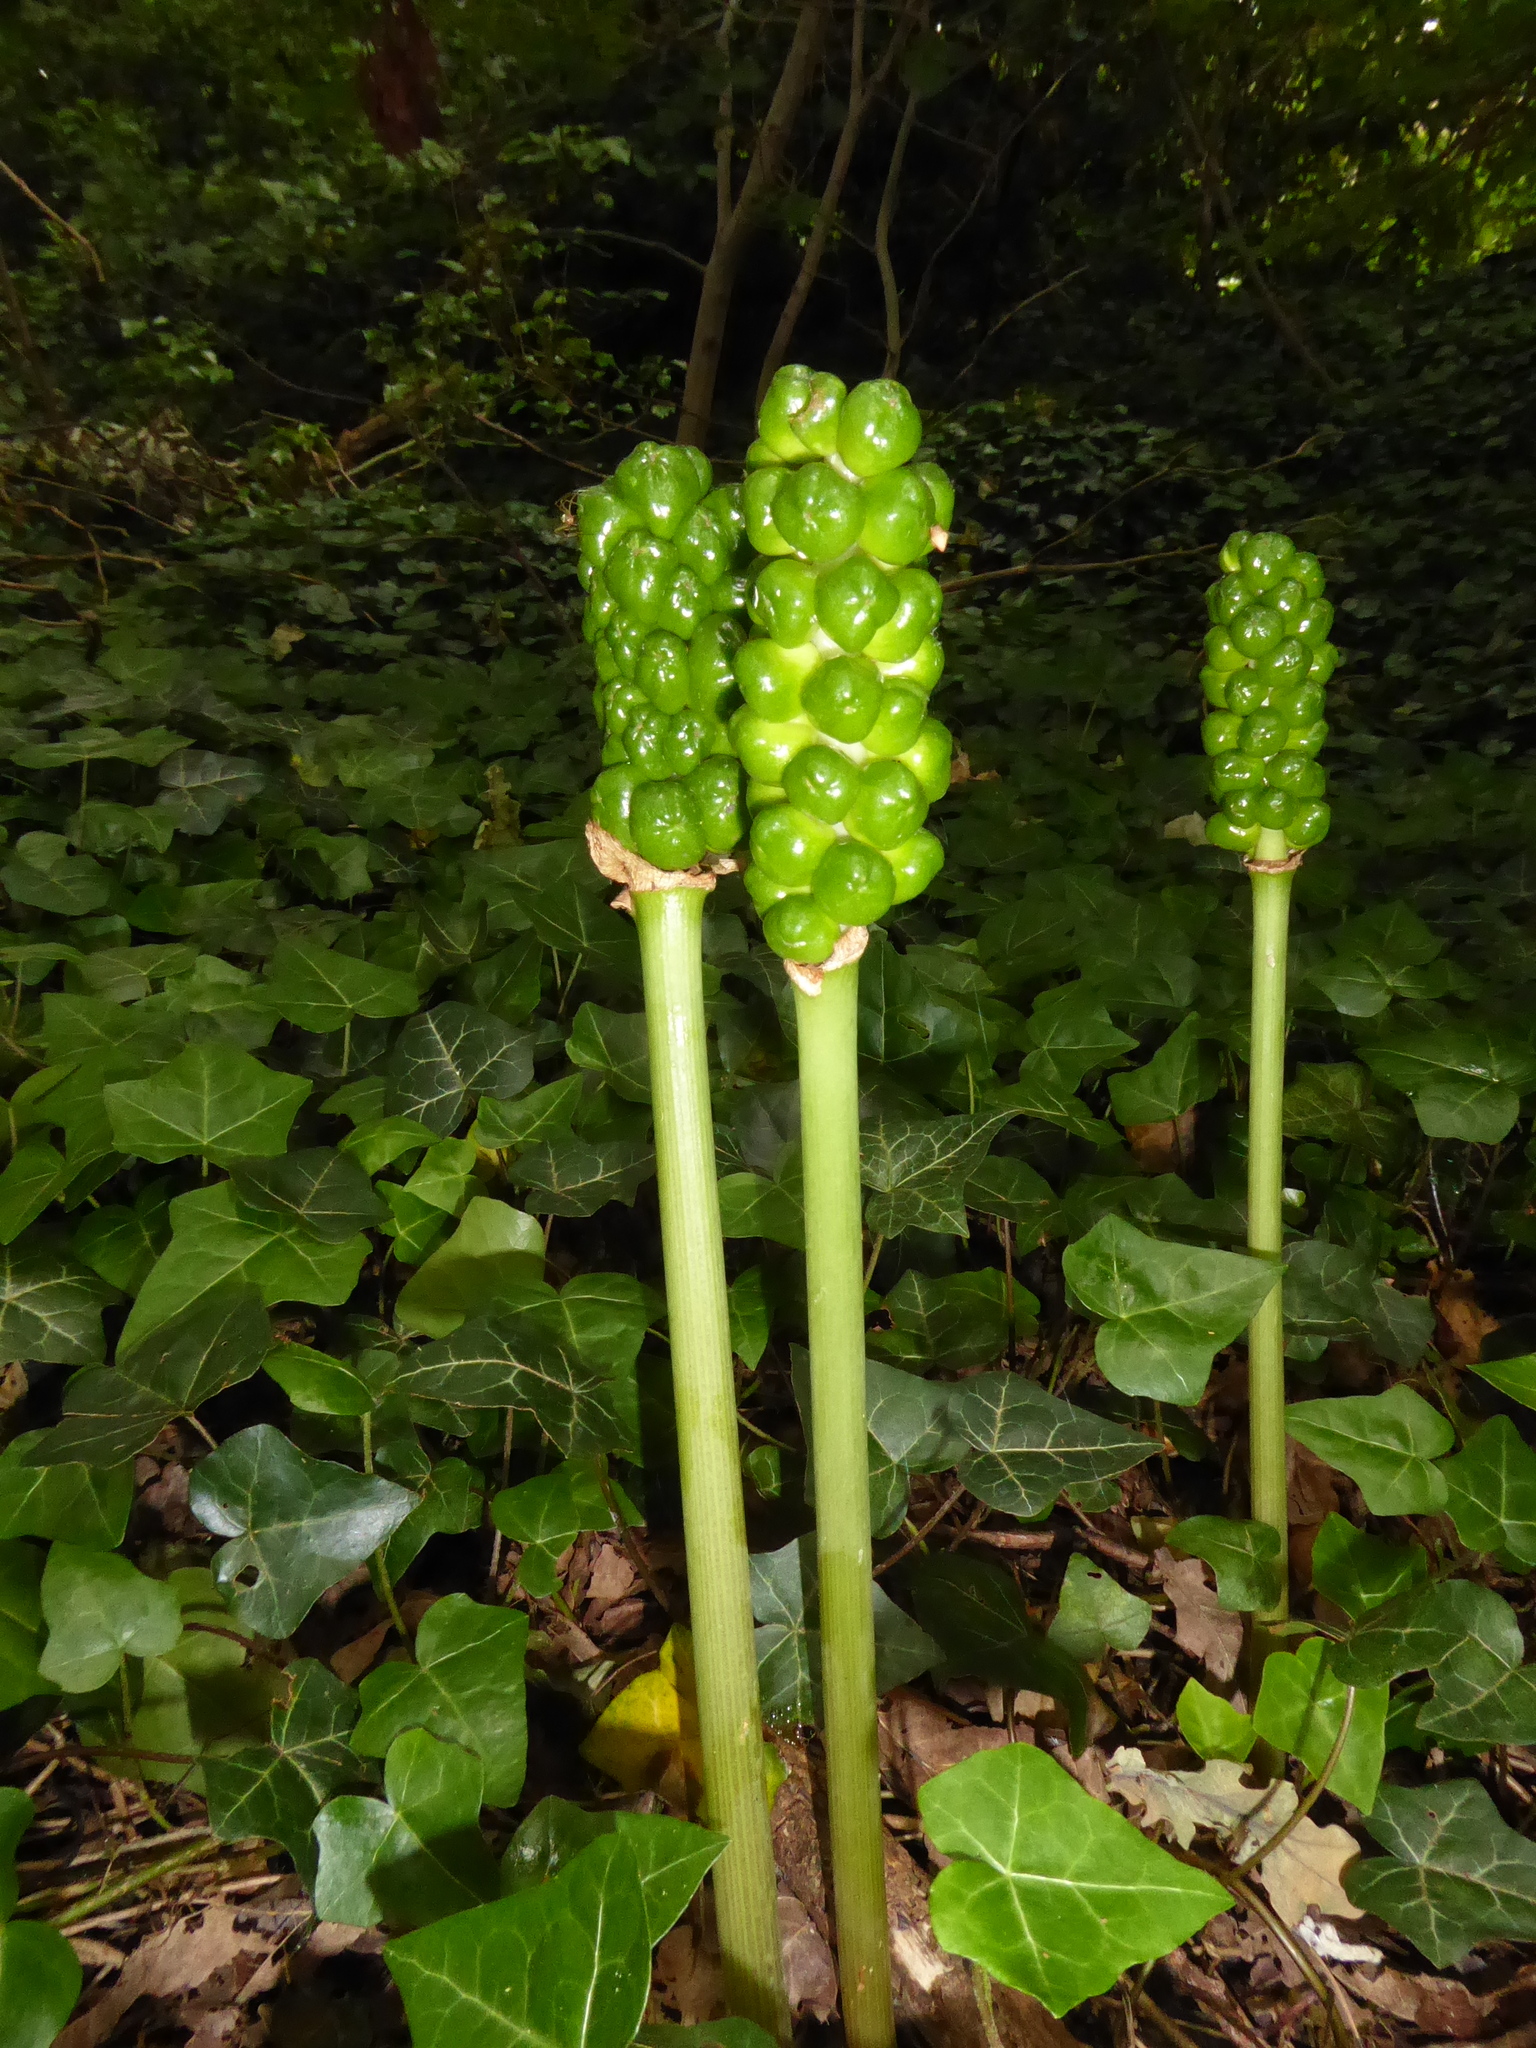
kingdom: Plantae
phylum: Tracheophyta
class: Liliopsida
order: Alismatales
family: Araceae
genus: Arum
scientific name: Arum maculatum
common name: Lords-and-ladies
